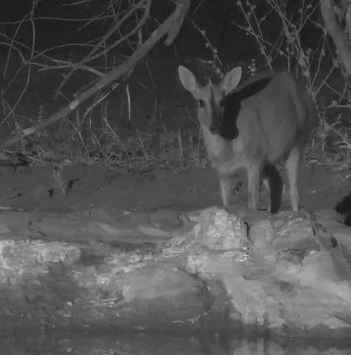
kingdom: Animalia
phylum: Chordata
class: Mammalia
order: Artiodactyla
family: Bovidae
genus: Sylvicapra
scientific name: Sylvicapra grimmia
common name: Bush duiker
